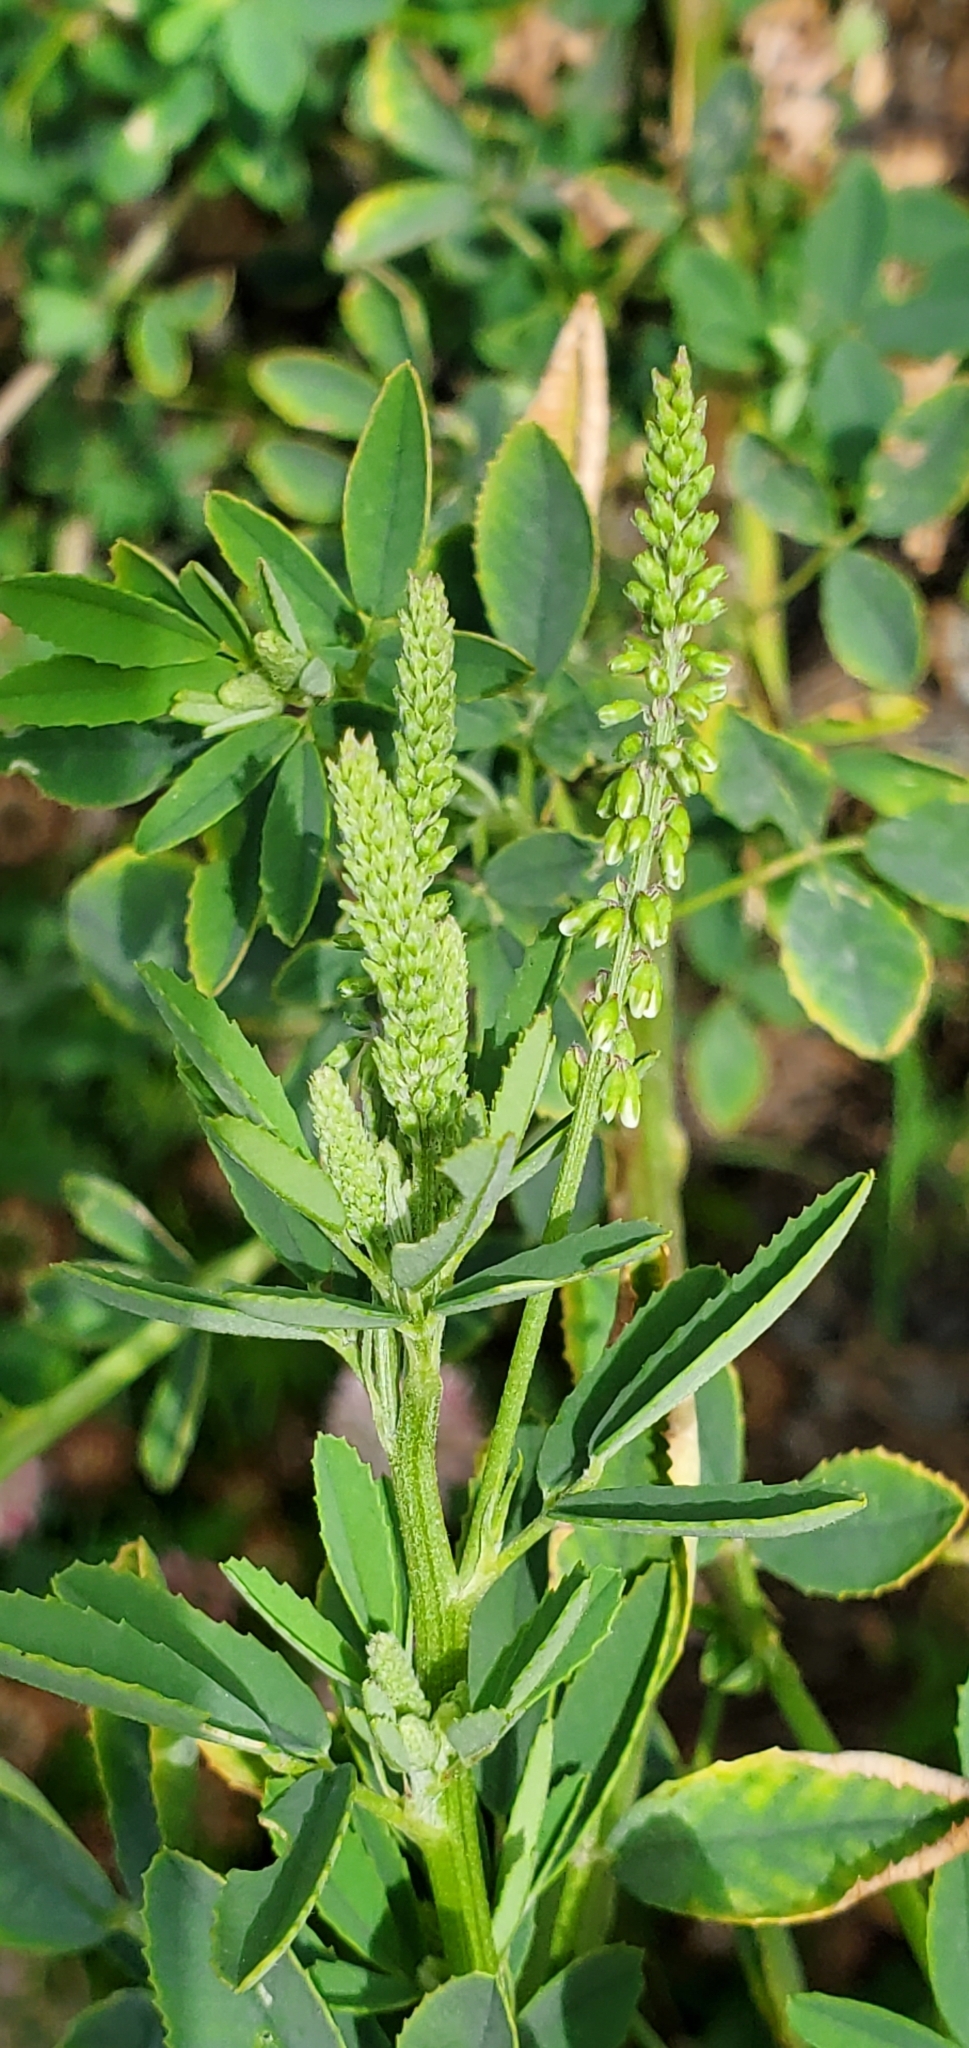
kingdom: Plantae
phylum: Tracheophyta
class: Magnoliopsida
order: Fabales
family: Fabaceae
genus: Melilotus
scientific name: Melilotus albus
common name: White melilot
